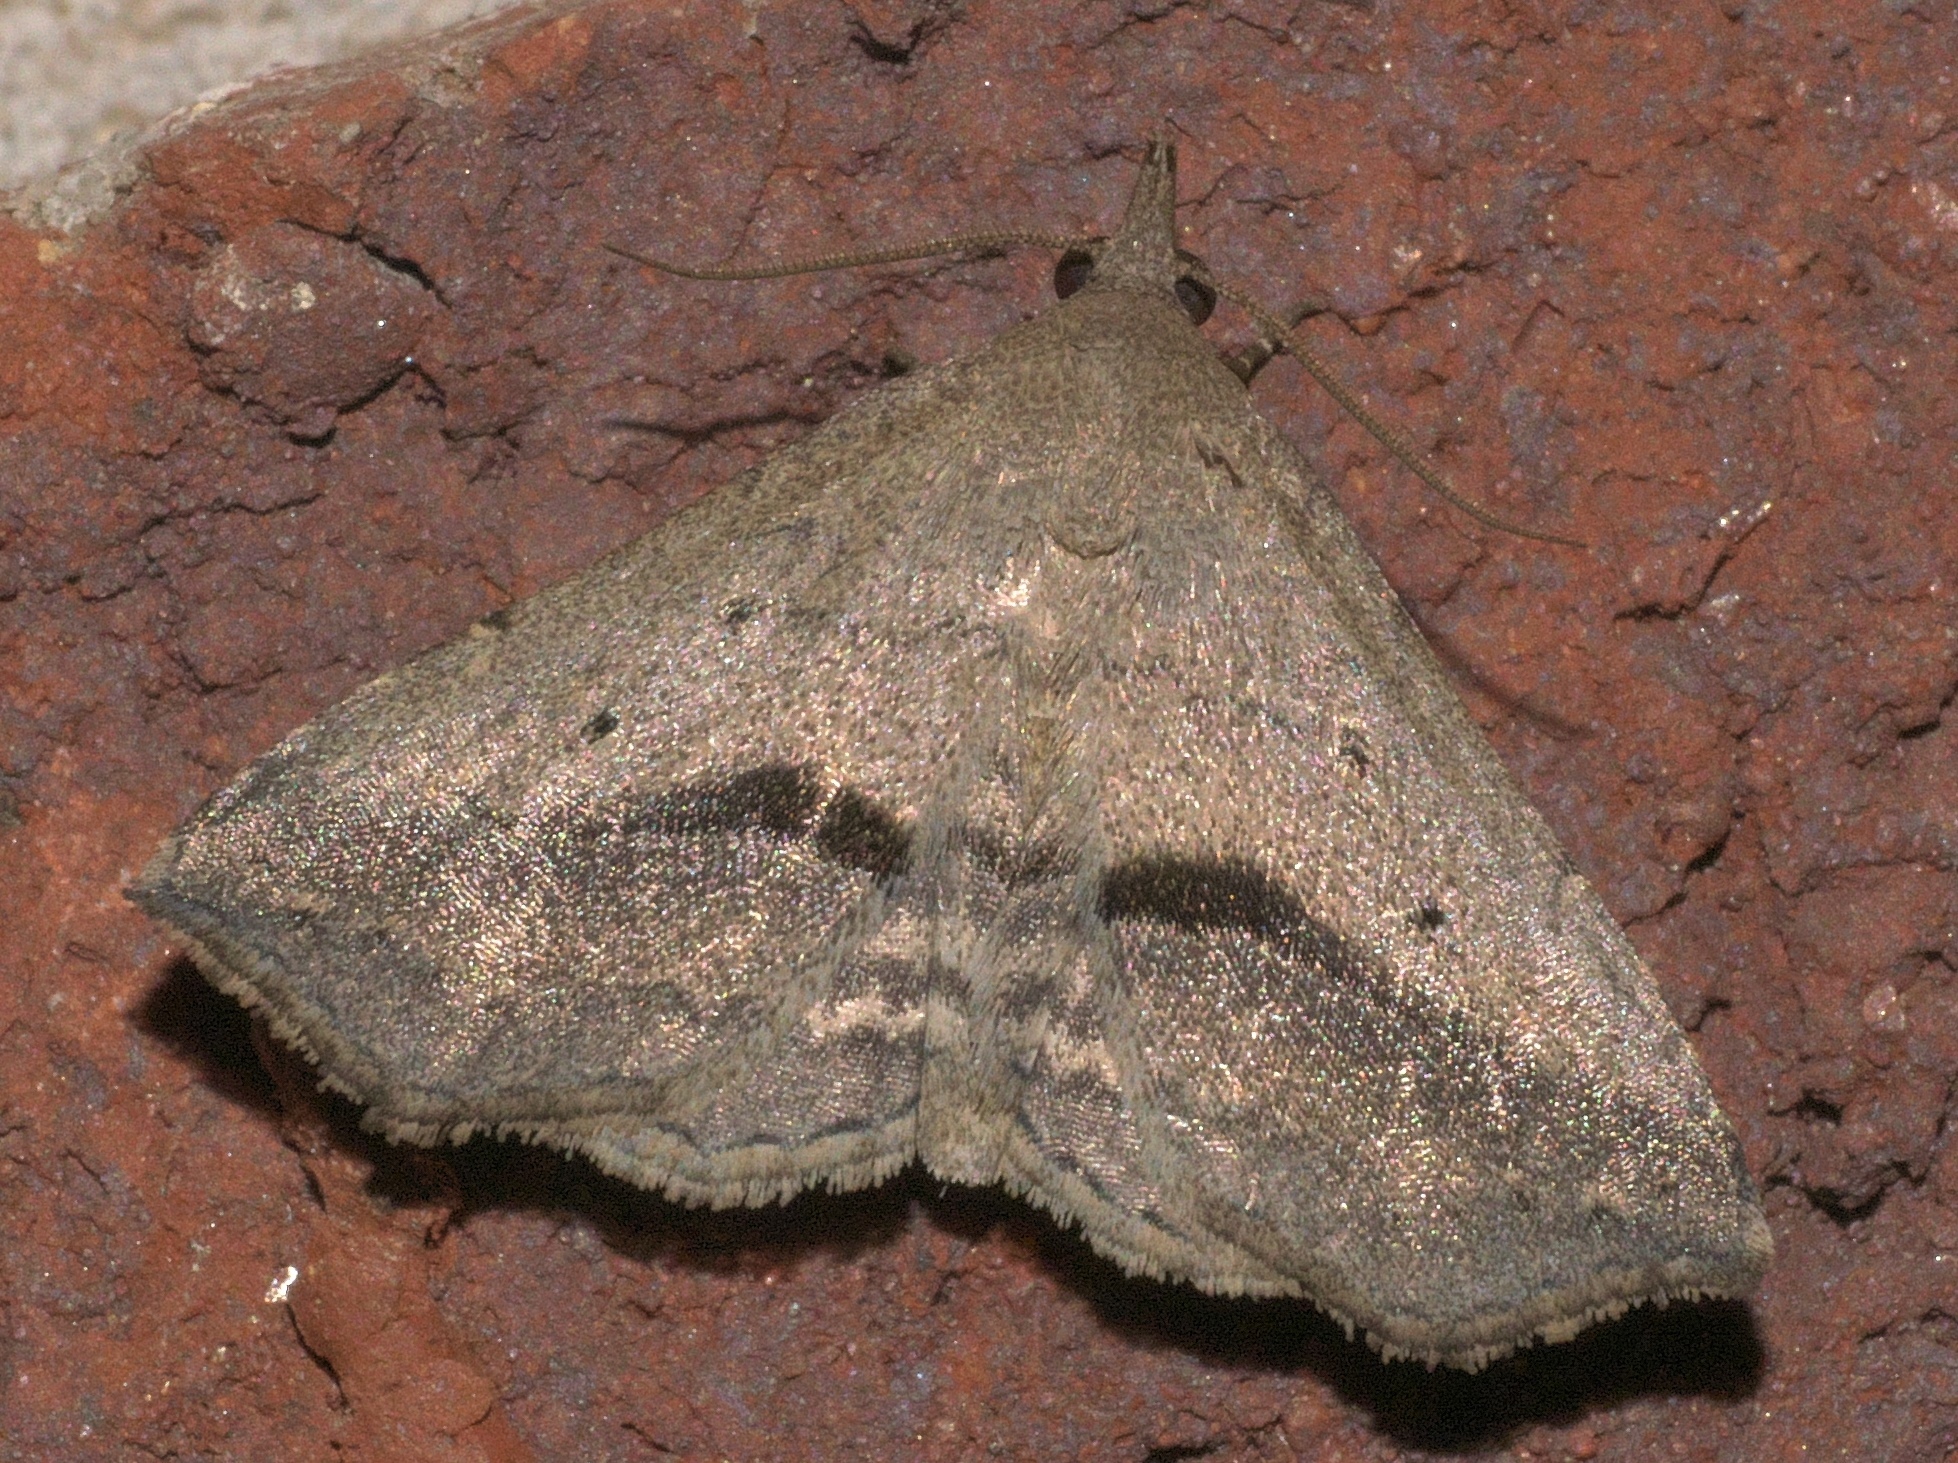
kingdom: Animalia
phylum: Arthropoda
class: Insecta
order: Lepidoptera
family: Erebidae
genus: Spargaloma
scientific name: Spargaloma perditalis
